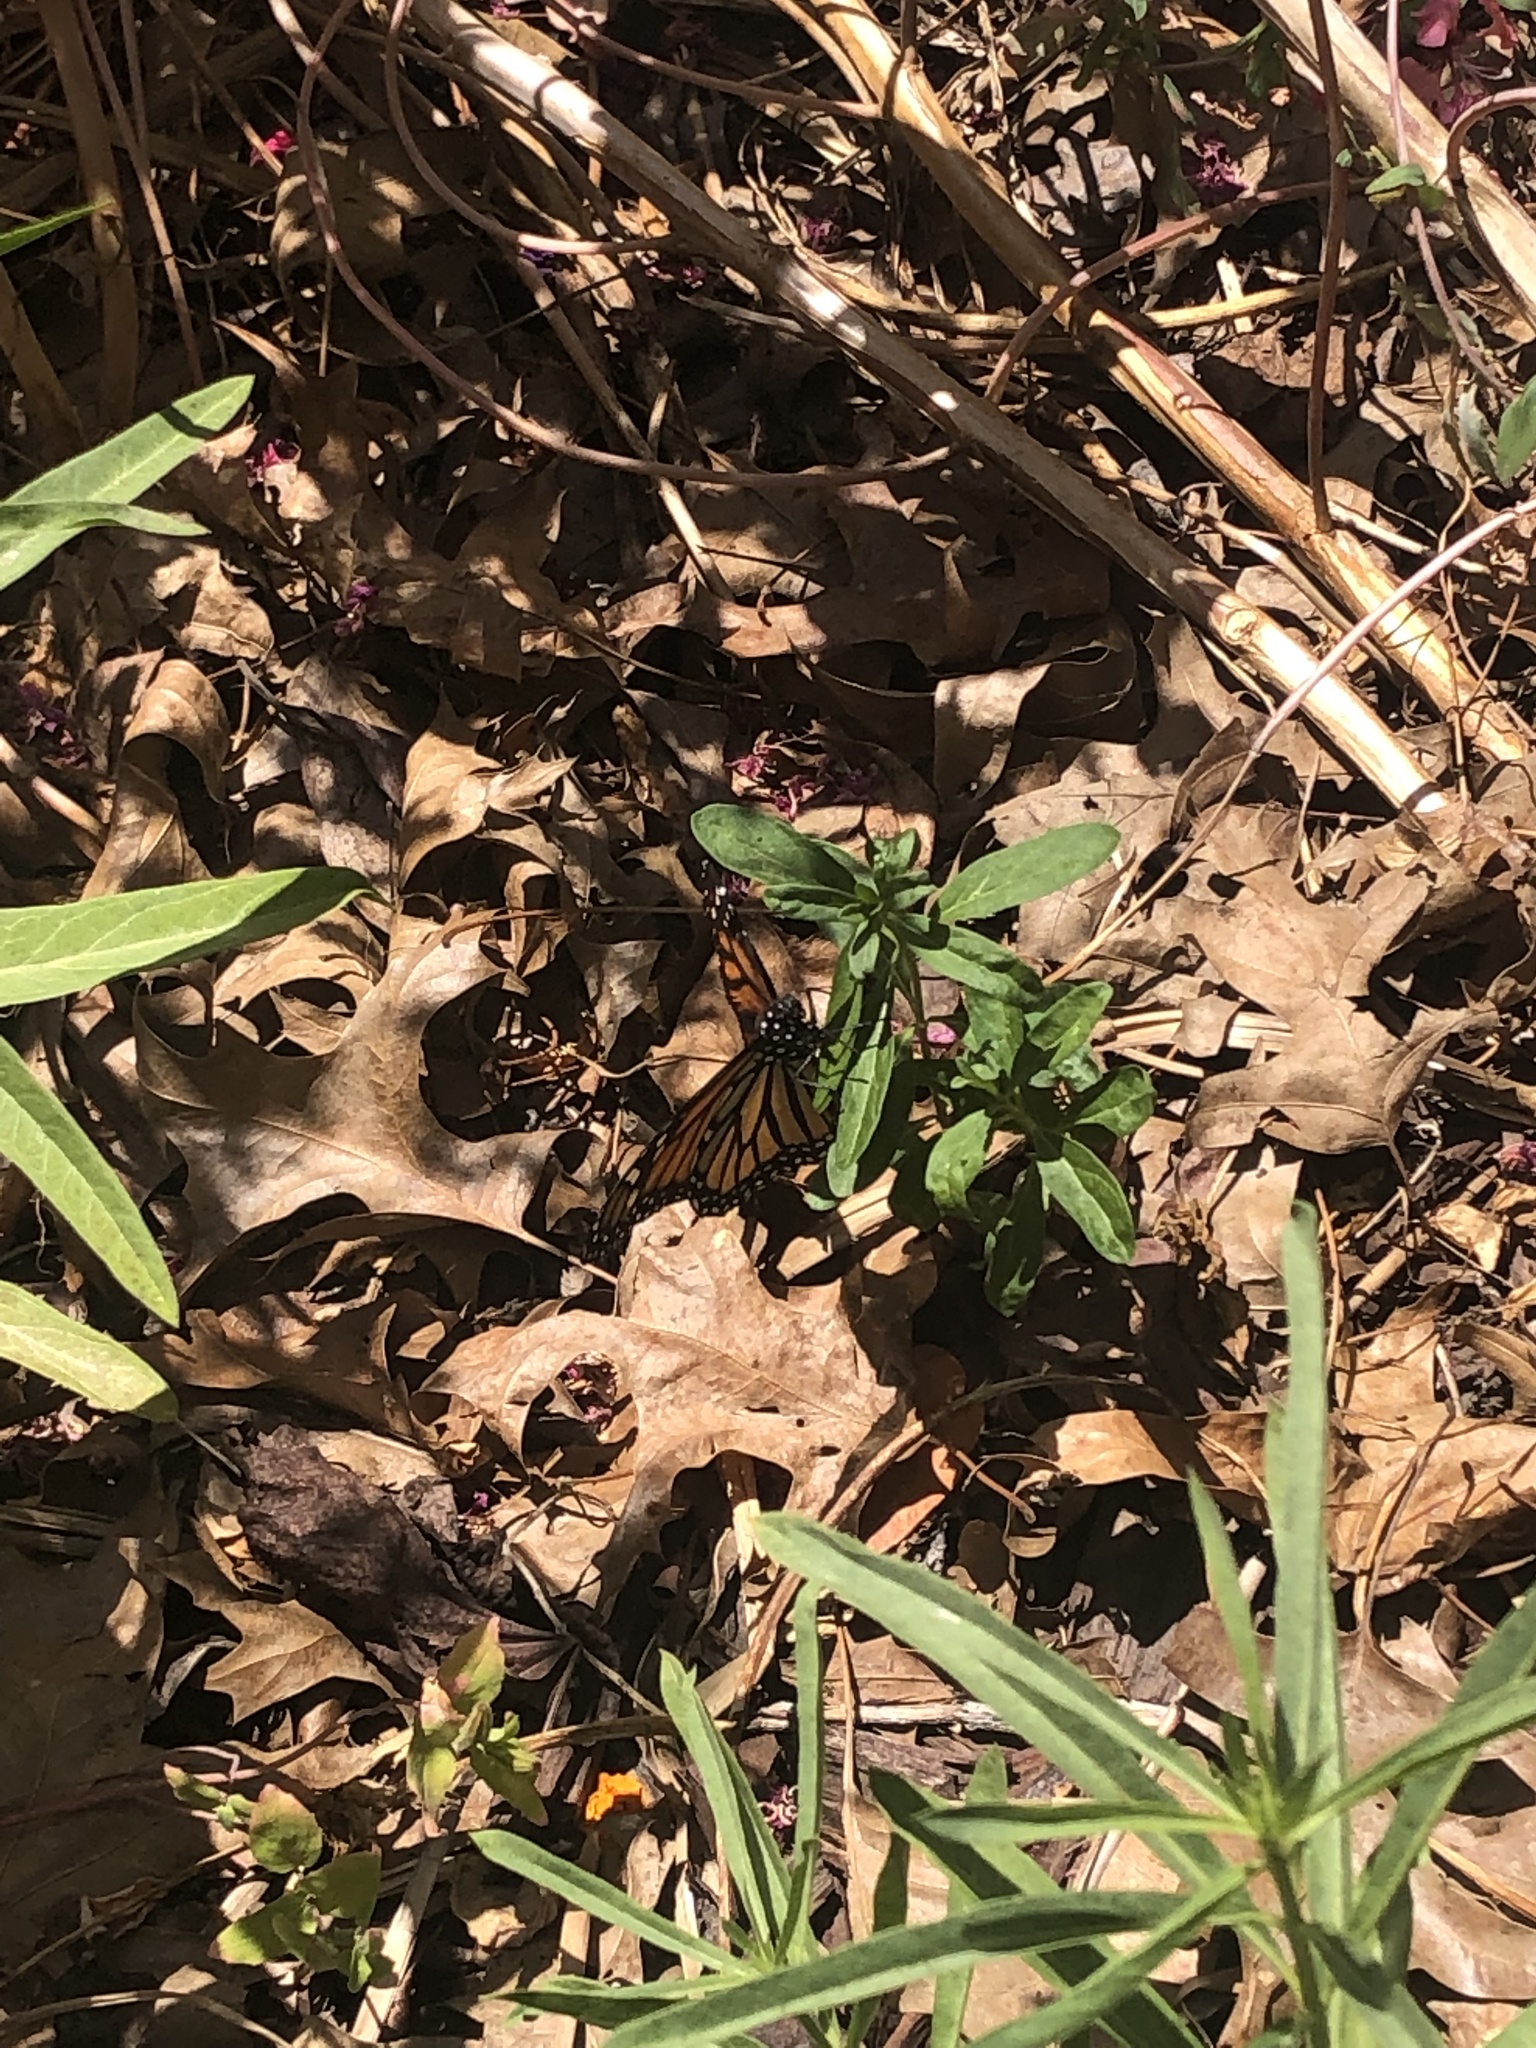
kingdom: Animalia
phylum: Arthropoda
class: Insecta
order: Lepidoptera
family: Nymphalidae
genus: Danaus
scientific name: Danaus plexippus
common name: Monarch
